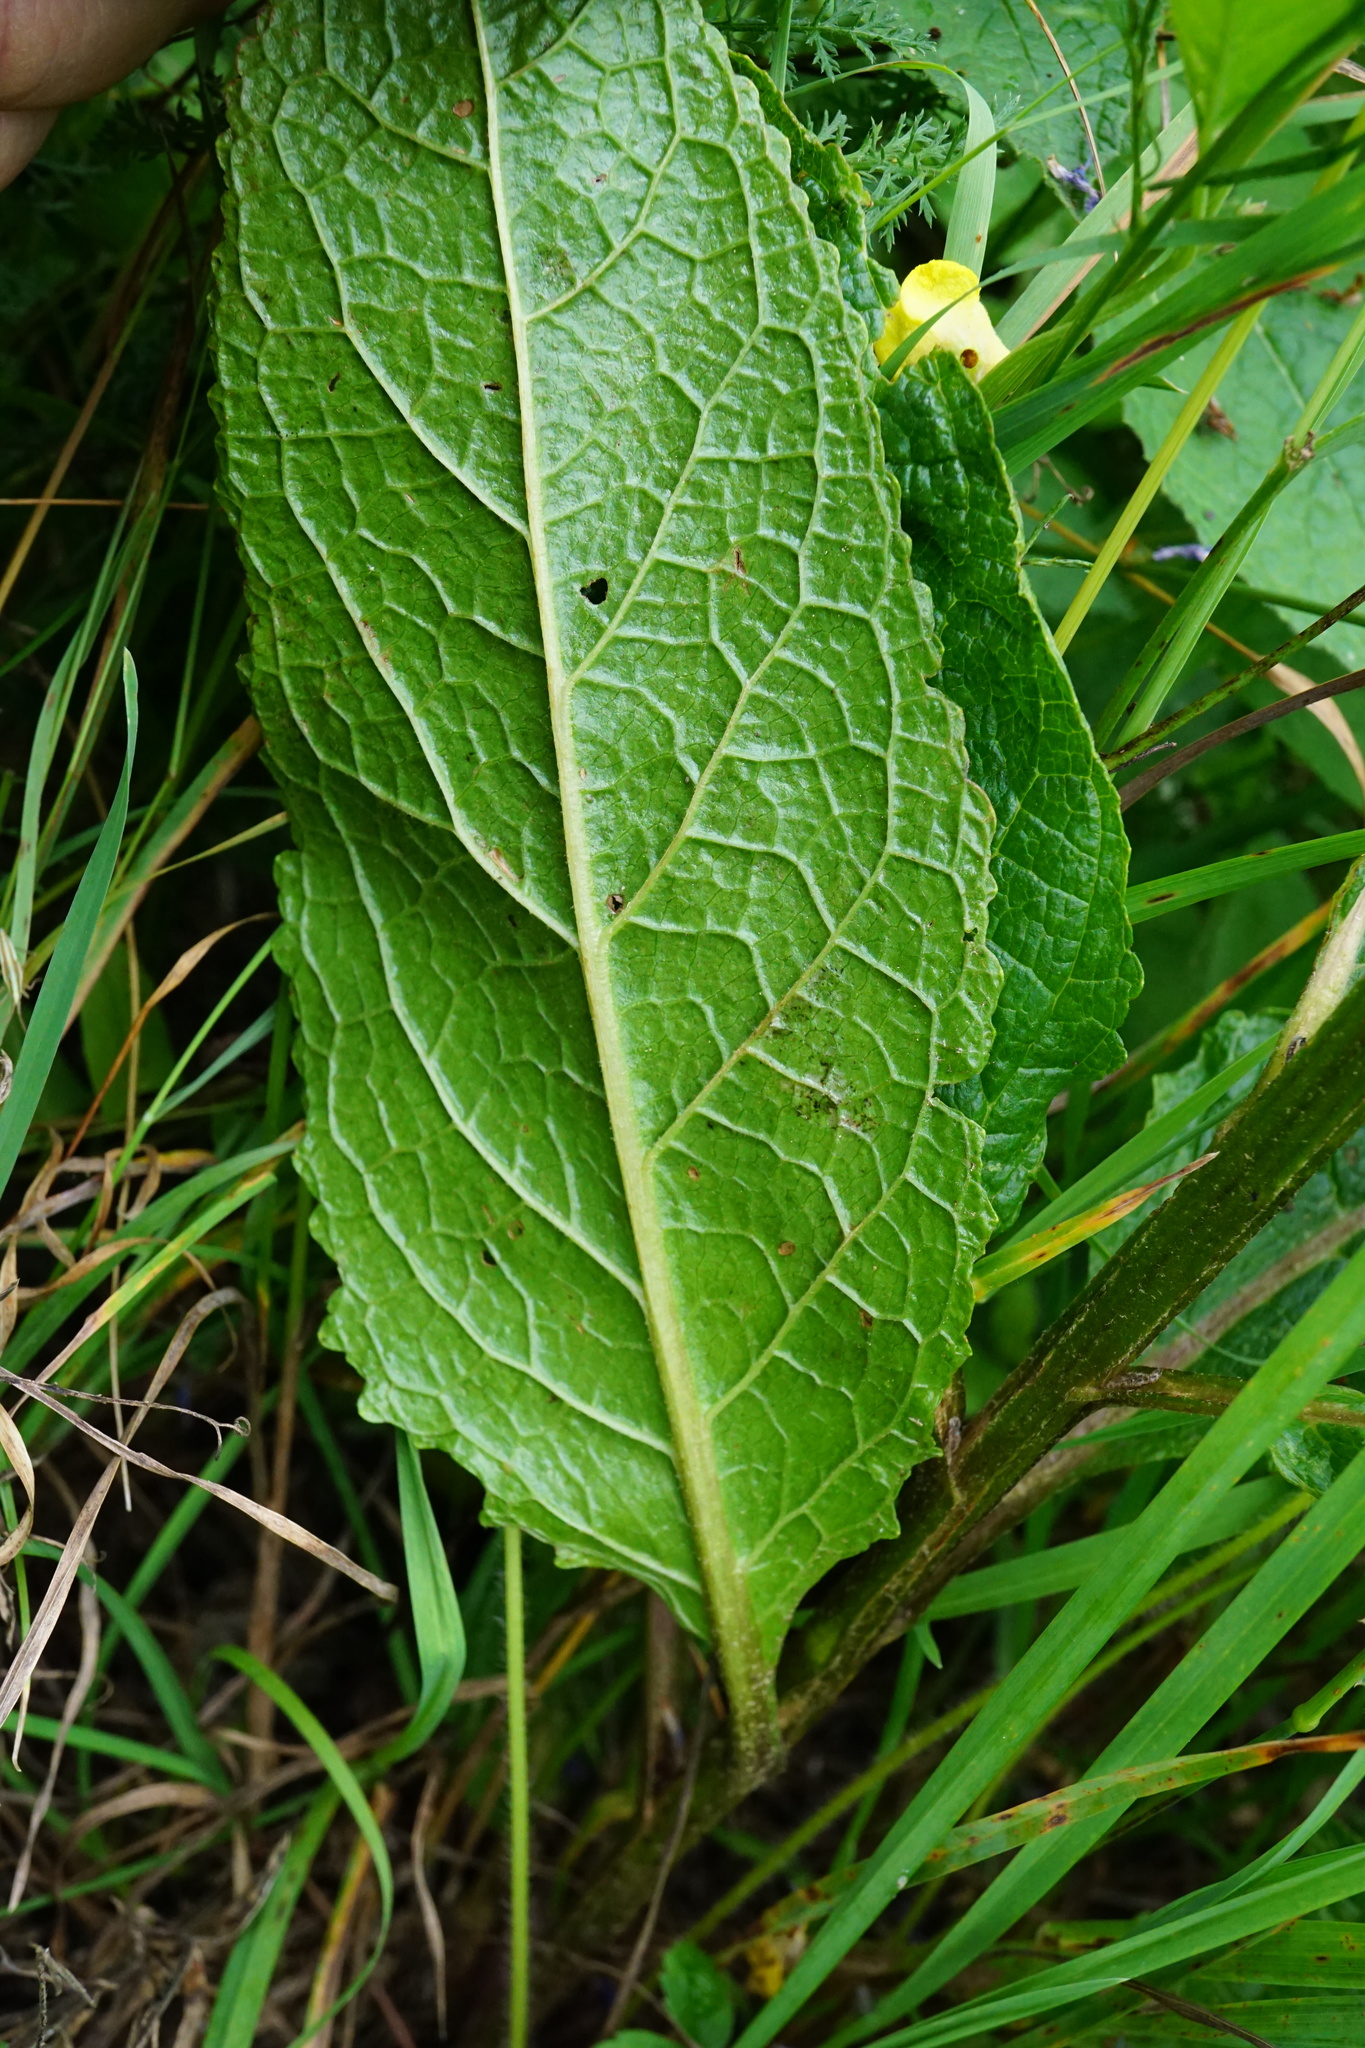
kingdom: Plantae
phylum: Tracheophyta
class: Magnoliopsida
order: Lamiales
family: Scrophulariaceae
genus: Verbascum
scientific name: Verbascum chaixii
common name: Nettle-leaved mullein
